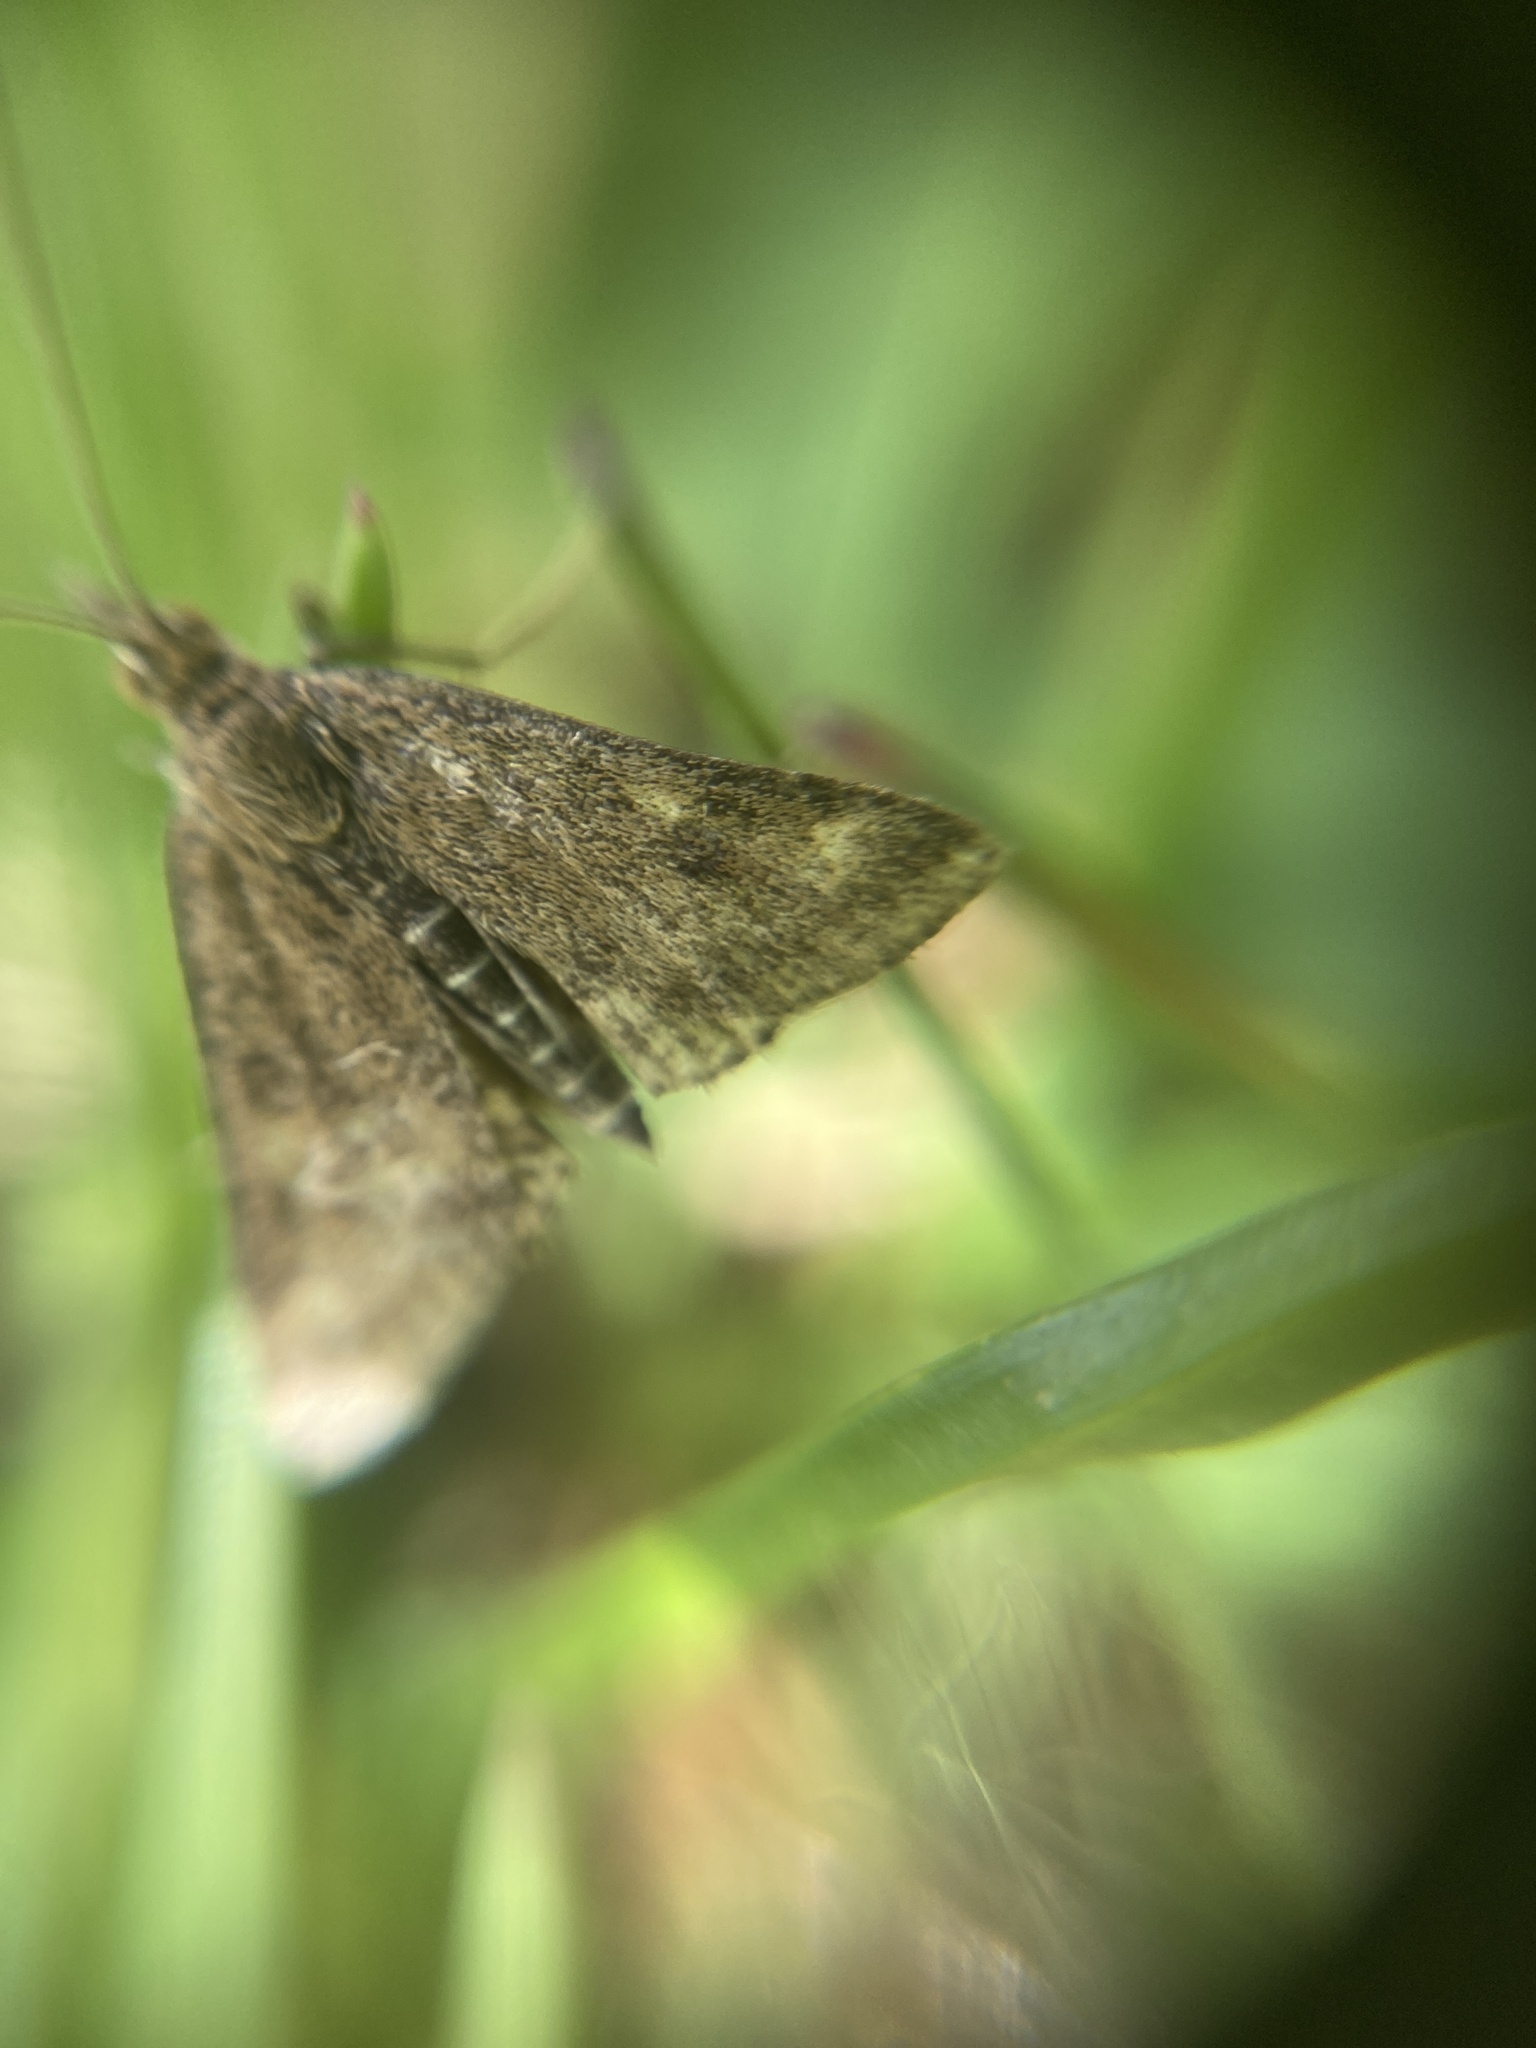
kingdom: Animalia
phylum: Arthropoda
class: Insecta
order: Lepidoptera
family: Crambidae
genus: Pyrausta
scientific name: Pyrausta despicata
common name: Straw-barred pearl
